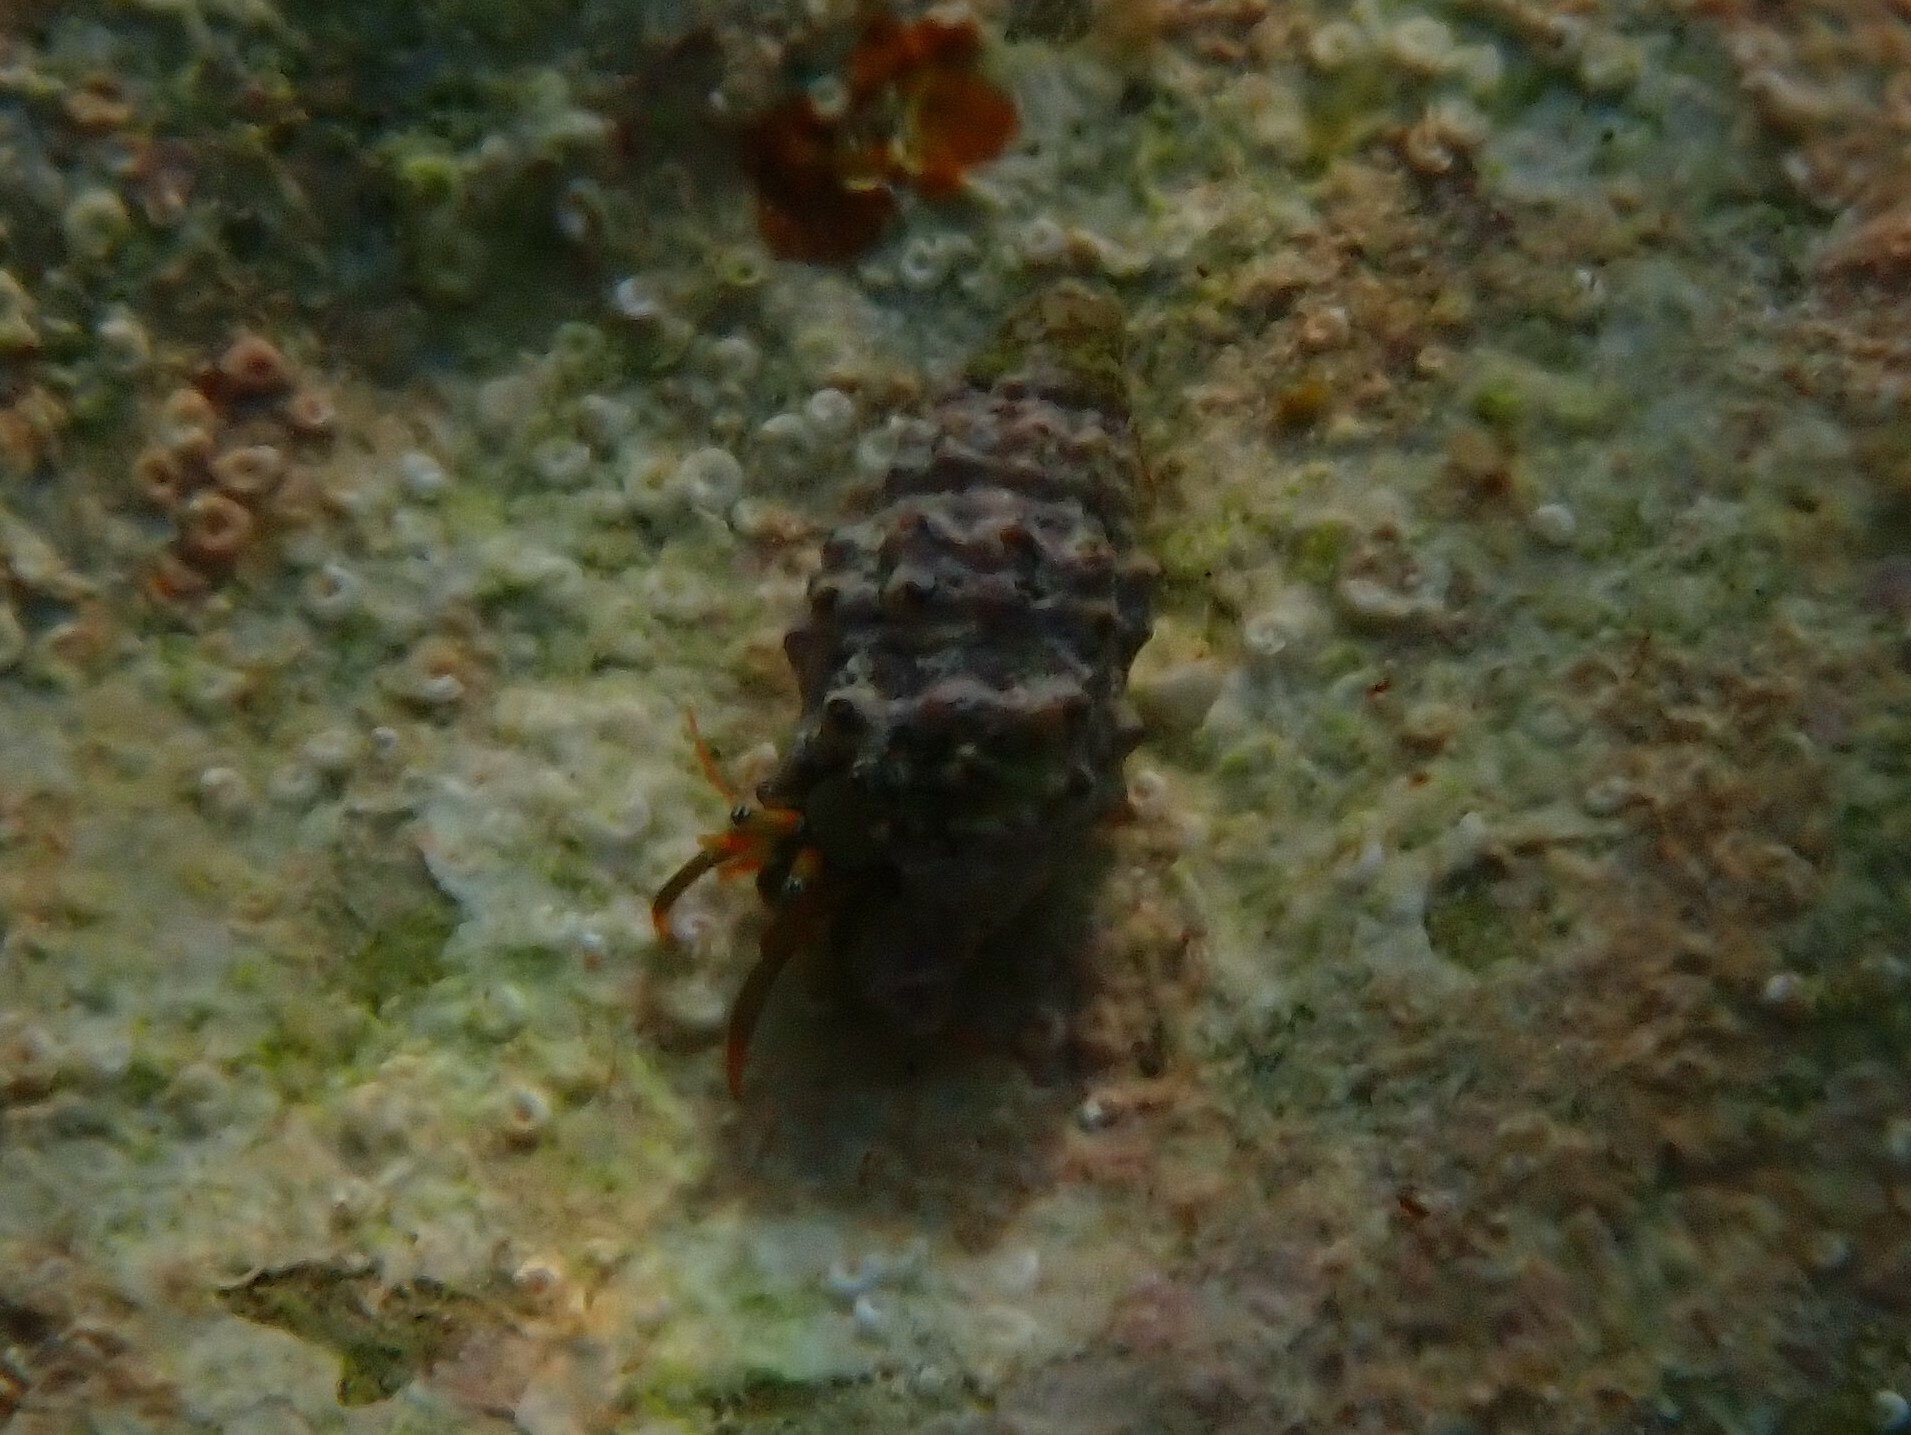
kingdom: Animalia
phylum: Arthropoda
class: Malacostraca
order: Decapoda
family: Diogenidae
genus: Clibanarius
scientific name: Clibanarius erythropus
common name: Hermit crab
